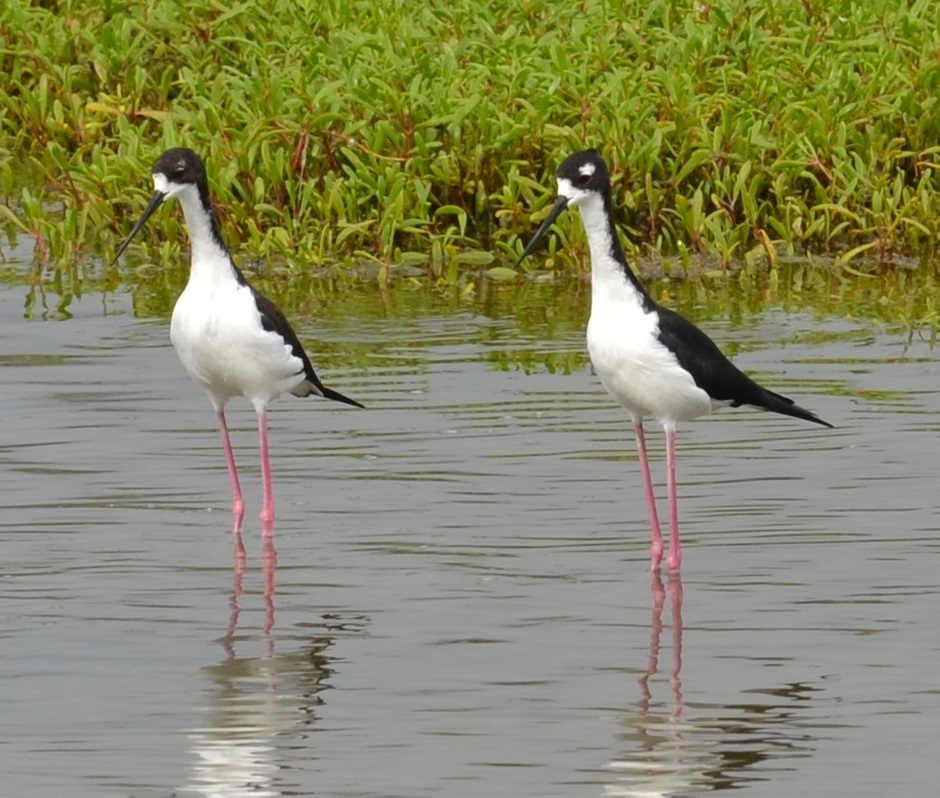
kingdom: Animalia
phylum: Chordata
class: Aves
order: Charadriiformes
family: Recurvirostridae
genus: Himantopus
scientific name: Himantopus mexicanus
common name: Black-necked stilt
